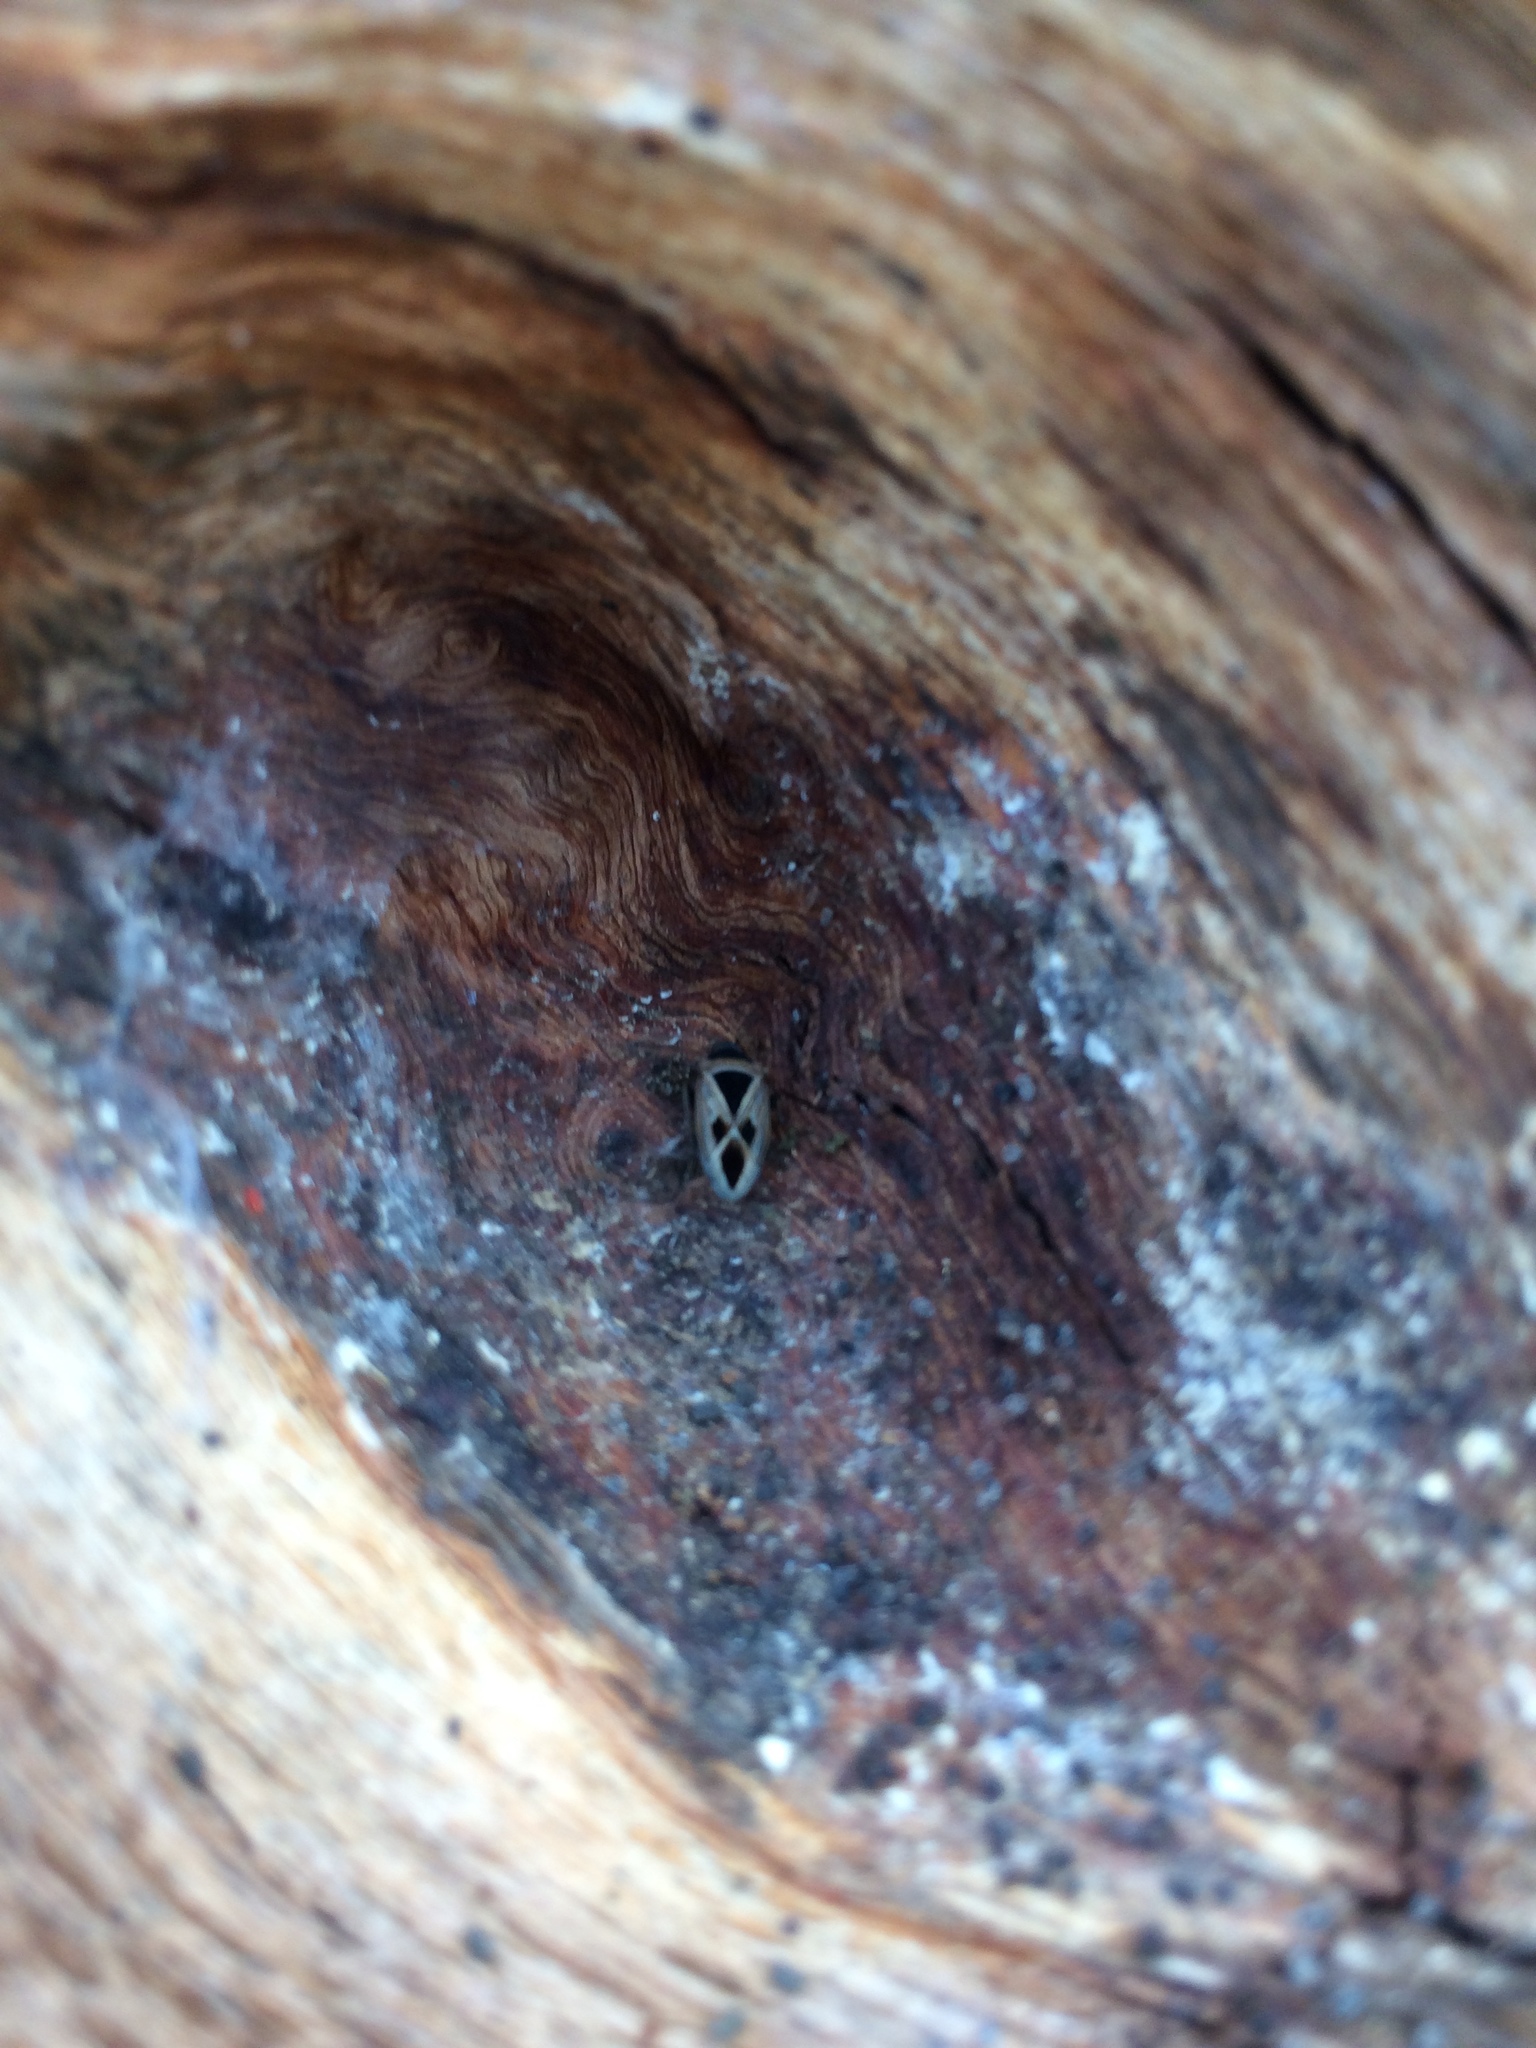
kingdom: Animalia
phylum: Arthropoda
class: Insecta
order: Hemiptera
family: Rhyparochromidae
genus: Xanthochilus
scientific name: Xanthochilus saturnius
